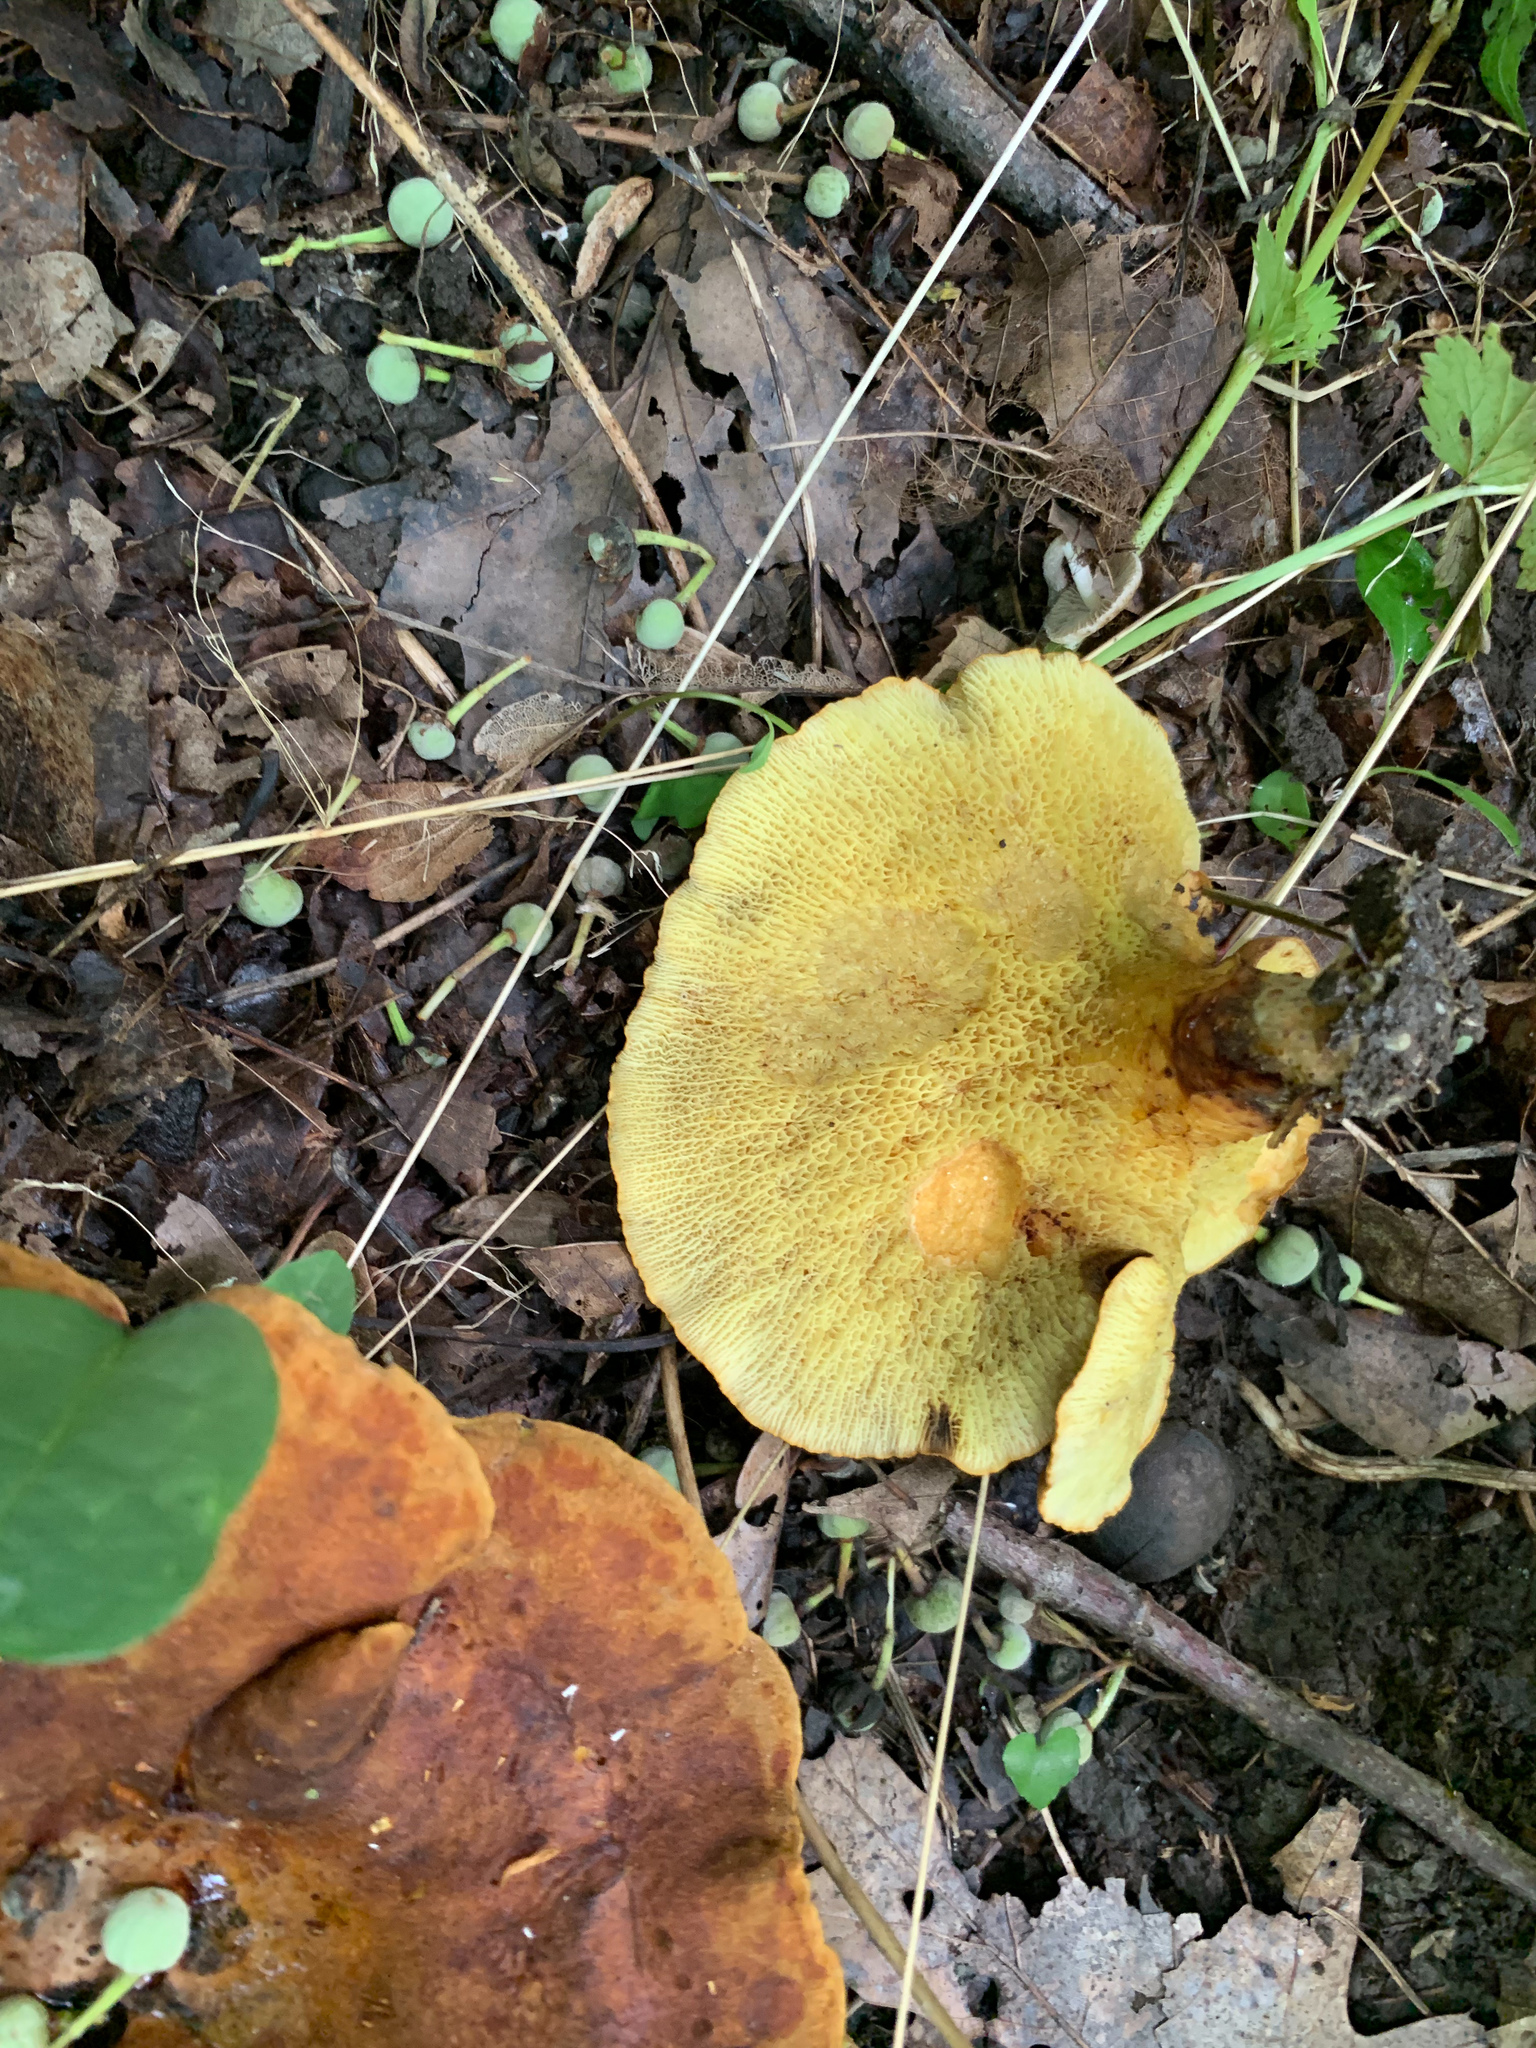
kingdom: Fungi
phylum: Basidiomycota
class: Agaricomycetes
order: Boletales
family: Boletinellaceae
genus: Boletinellus
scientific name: Boletinellus merulioides
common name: Ash tree bolete
